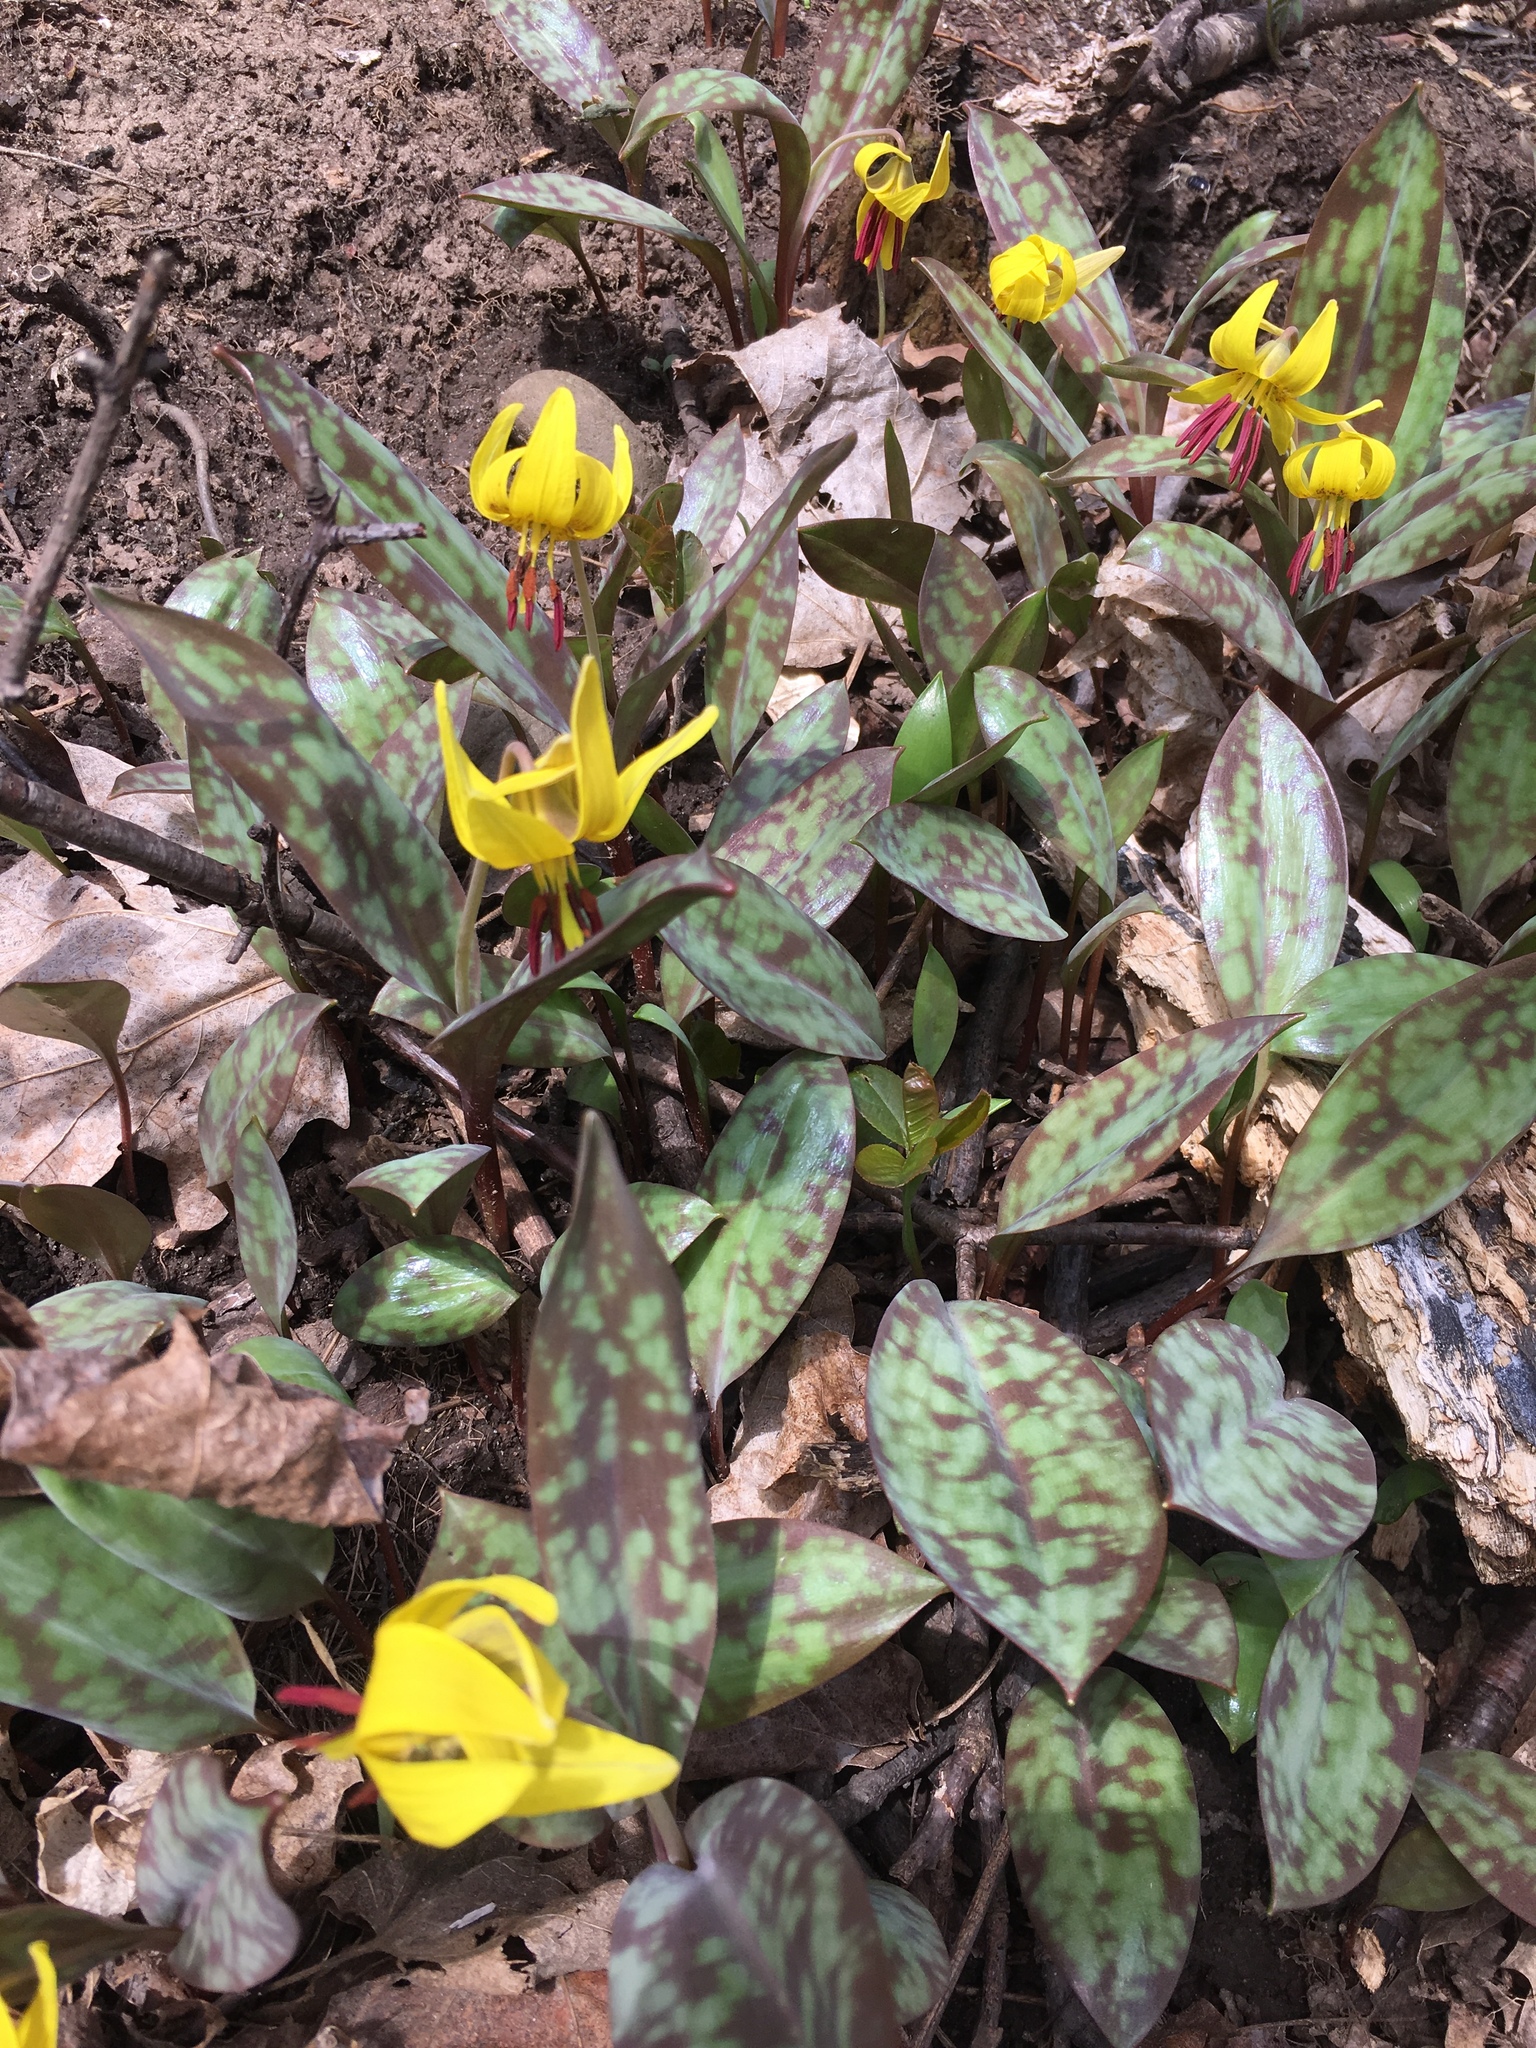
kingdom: Plantae
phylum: Tracheophyta
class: Liliopsida
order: Liliales
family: Liliaceae
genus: Erythronium
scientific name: Erythronium americanum
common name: Yellow adder's-tongue
